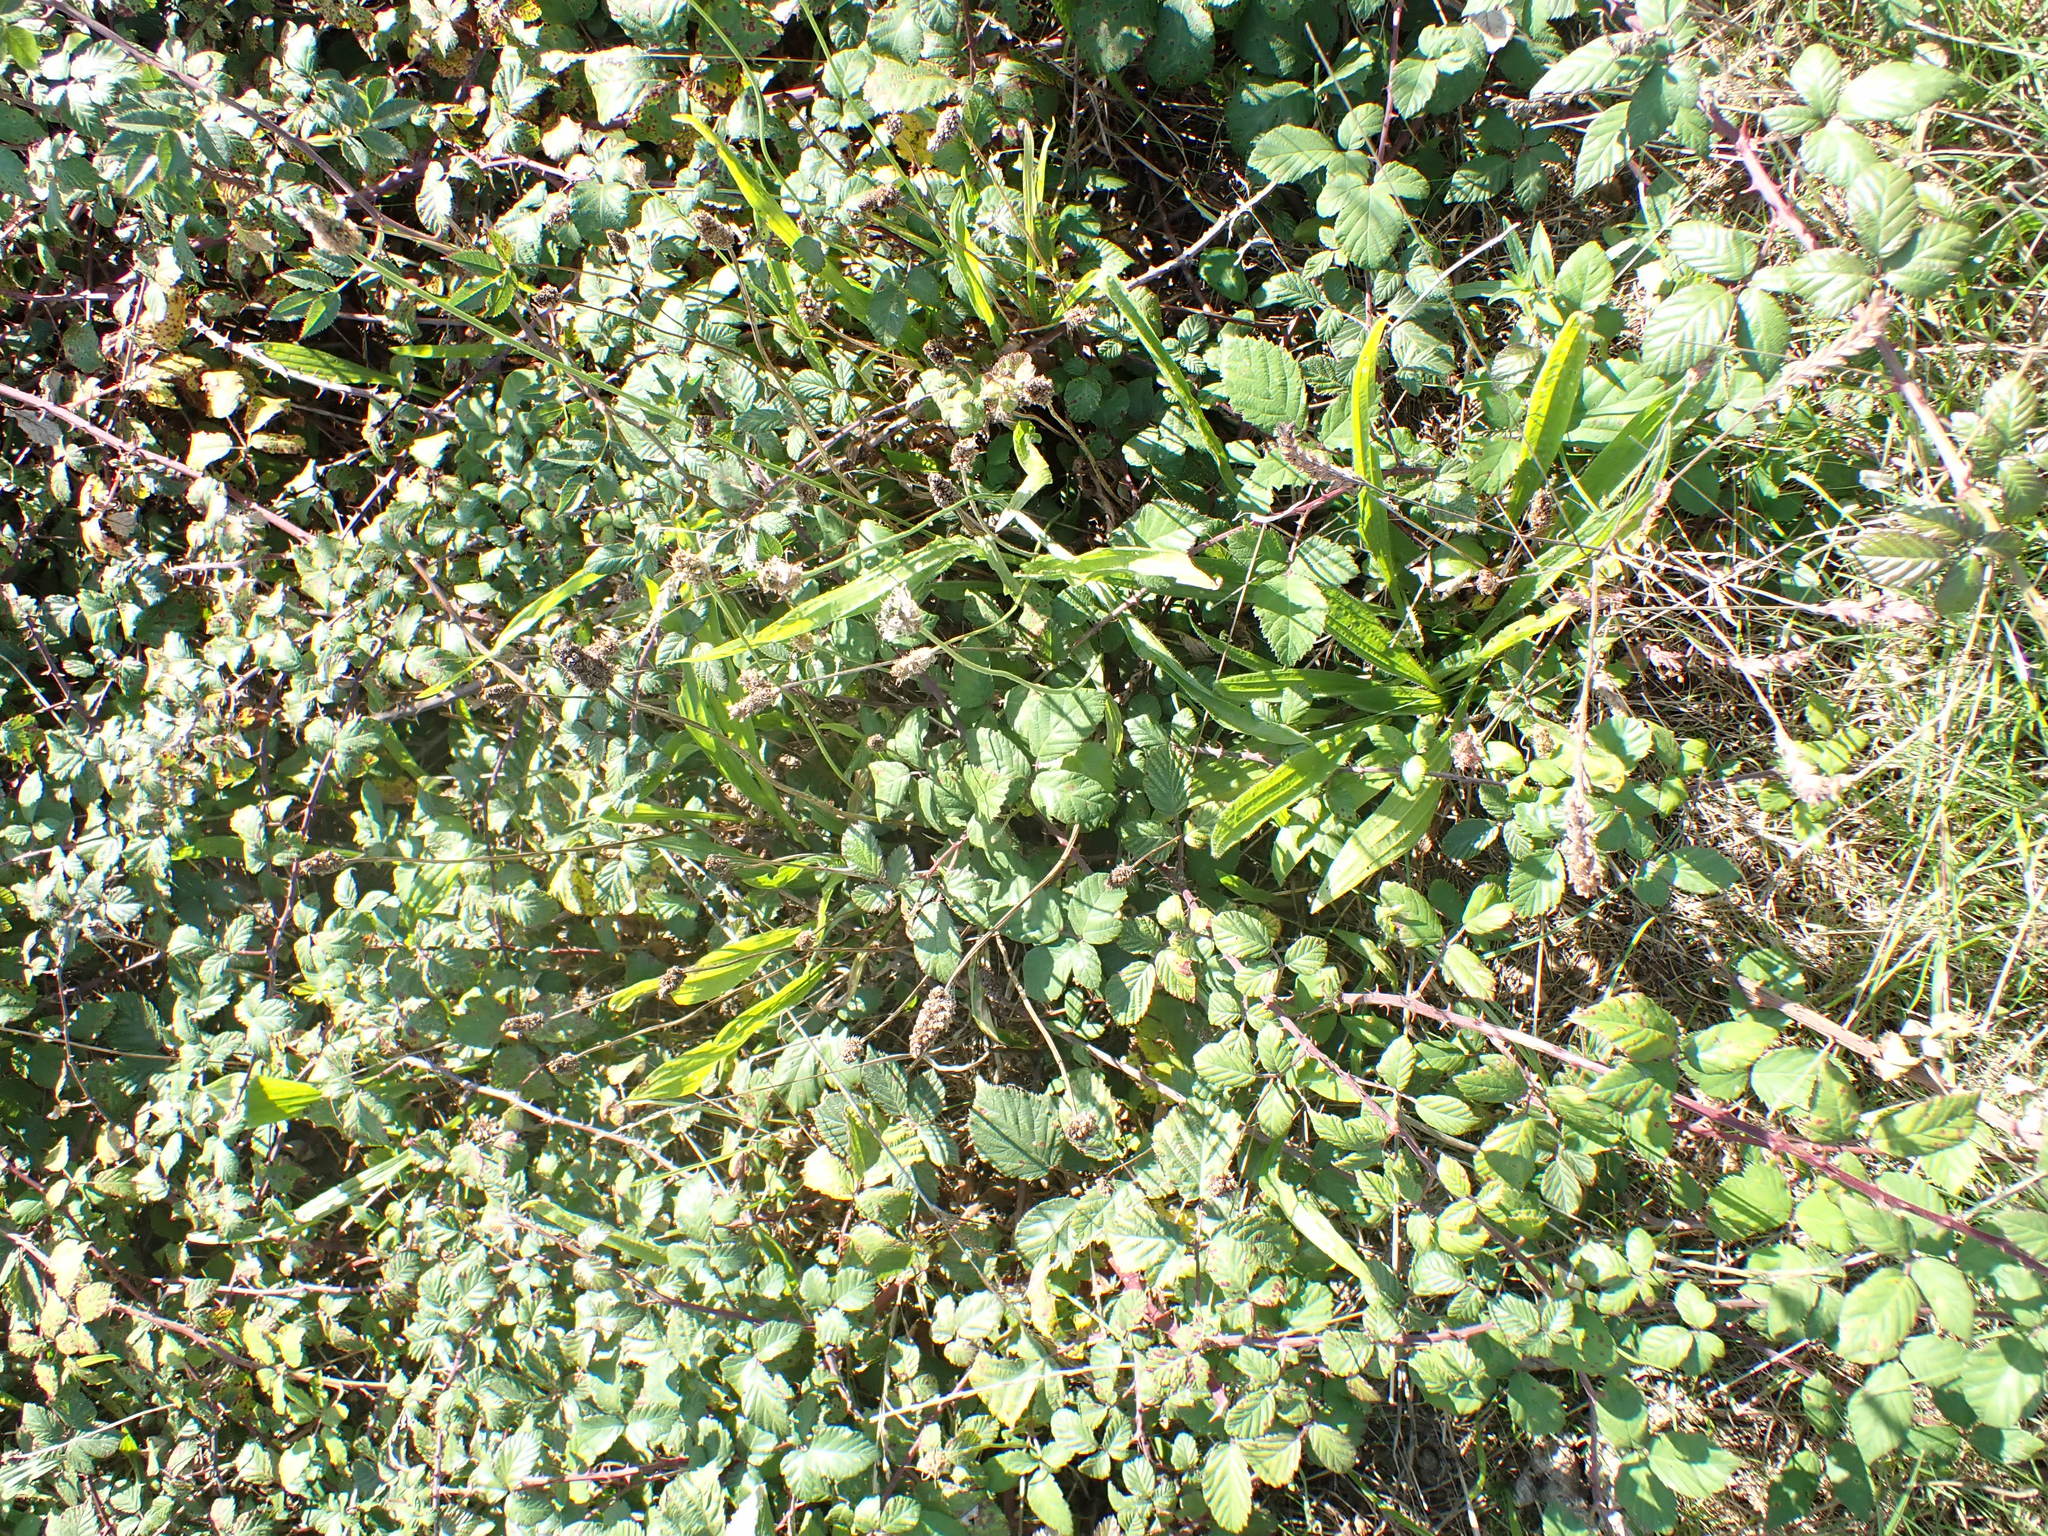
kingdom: Plantae
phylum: Tracheophyta
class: Magnoliopsida
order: Lamiales
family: Plantaginaceae
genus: Plantago
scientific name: Plantago lanceolata
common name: Ribwort plantain
